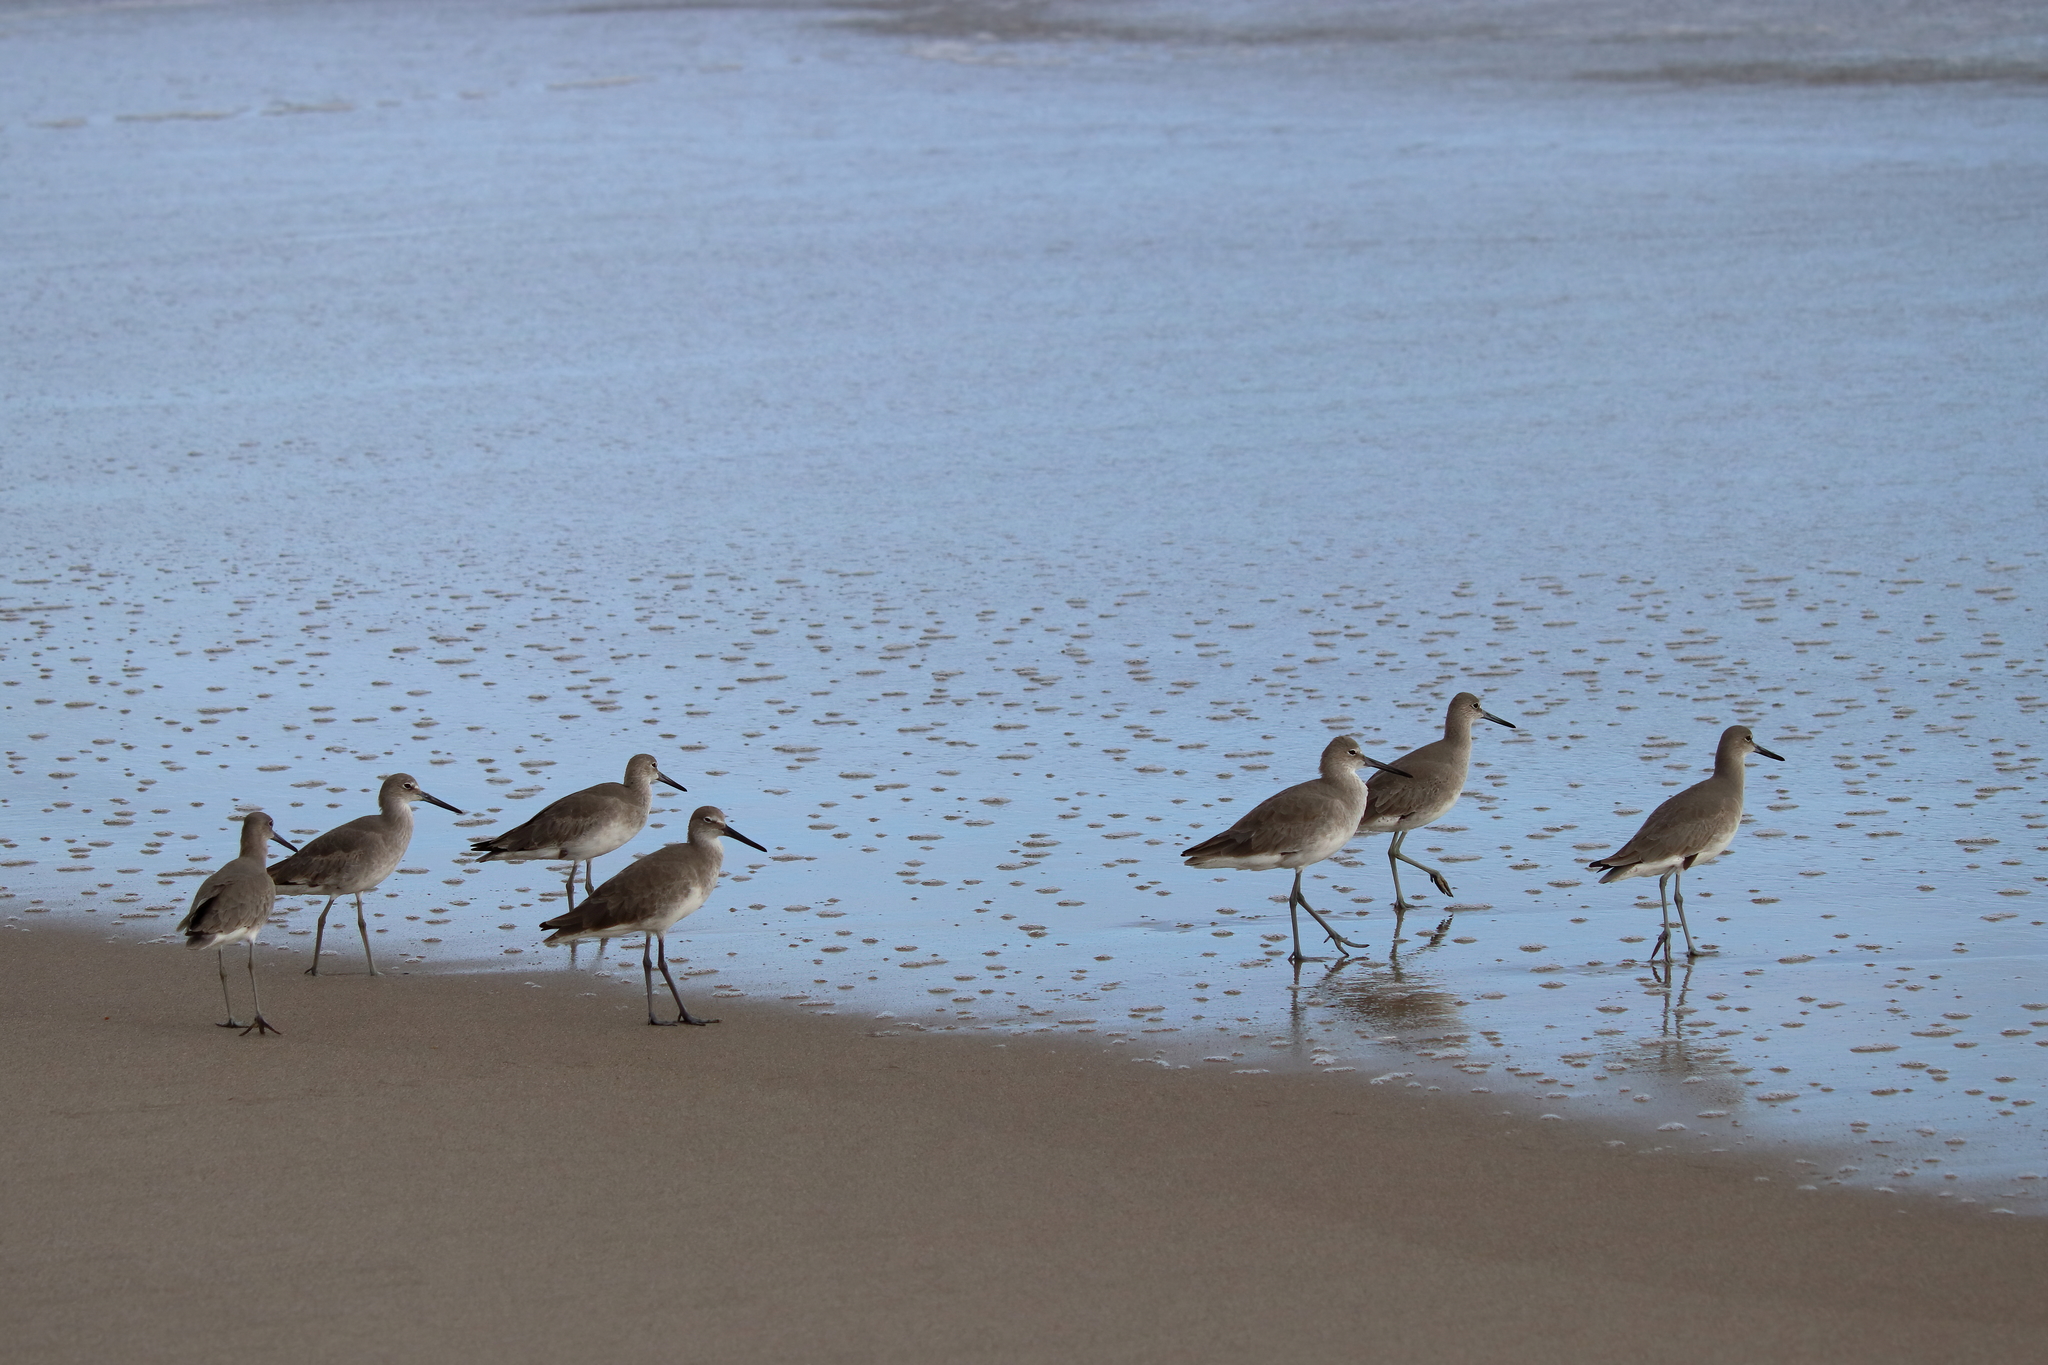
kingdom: Animalia
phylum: Chordata
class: Aves
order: Charadriiformes
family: Scolopacidae
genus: Tringa
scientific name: Tringa semipalmata
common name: Willet
